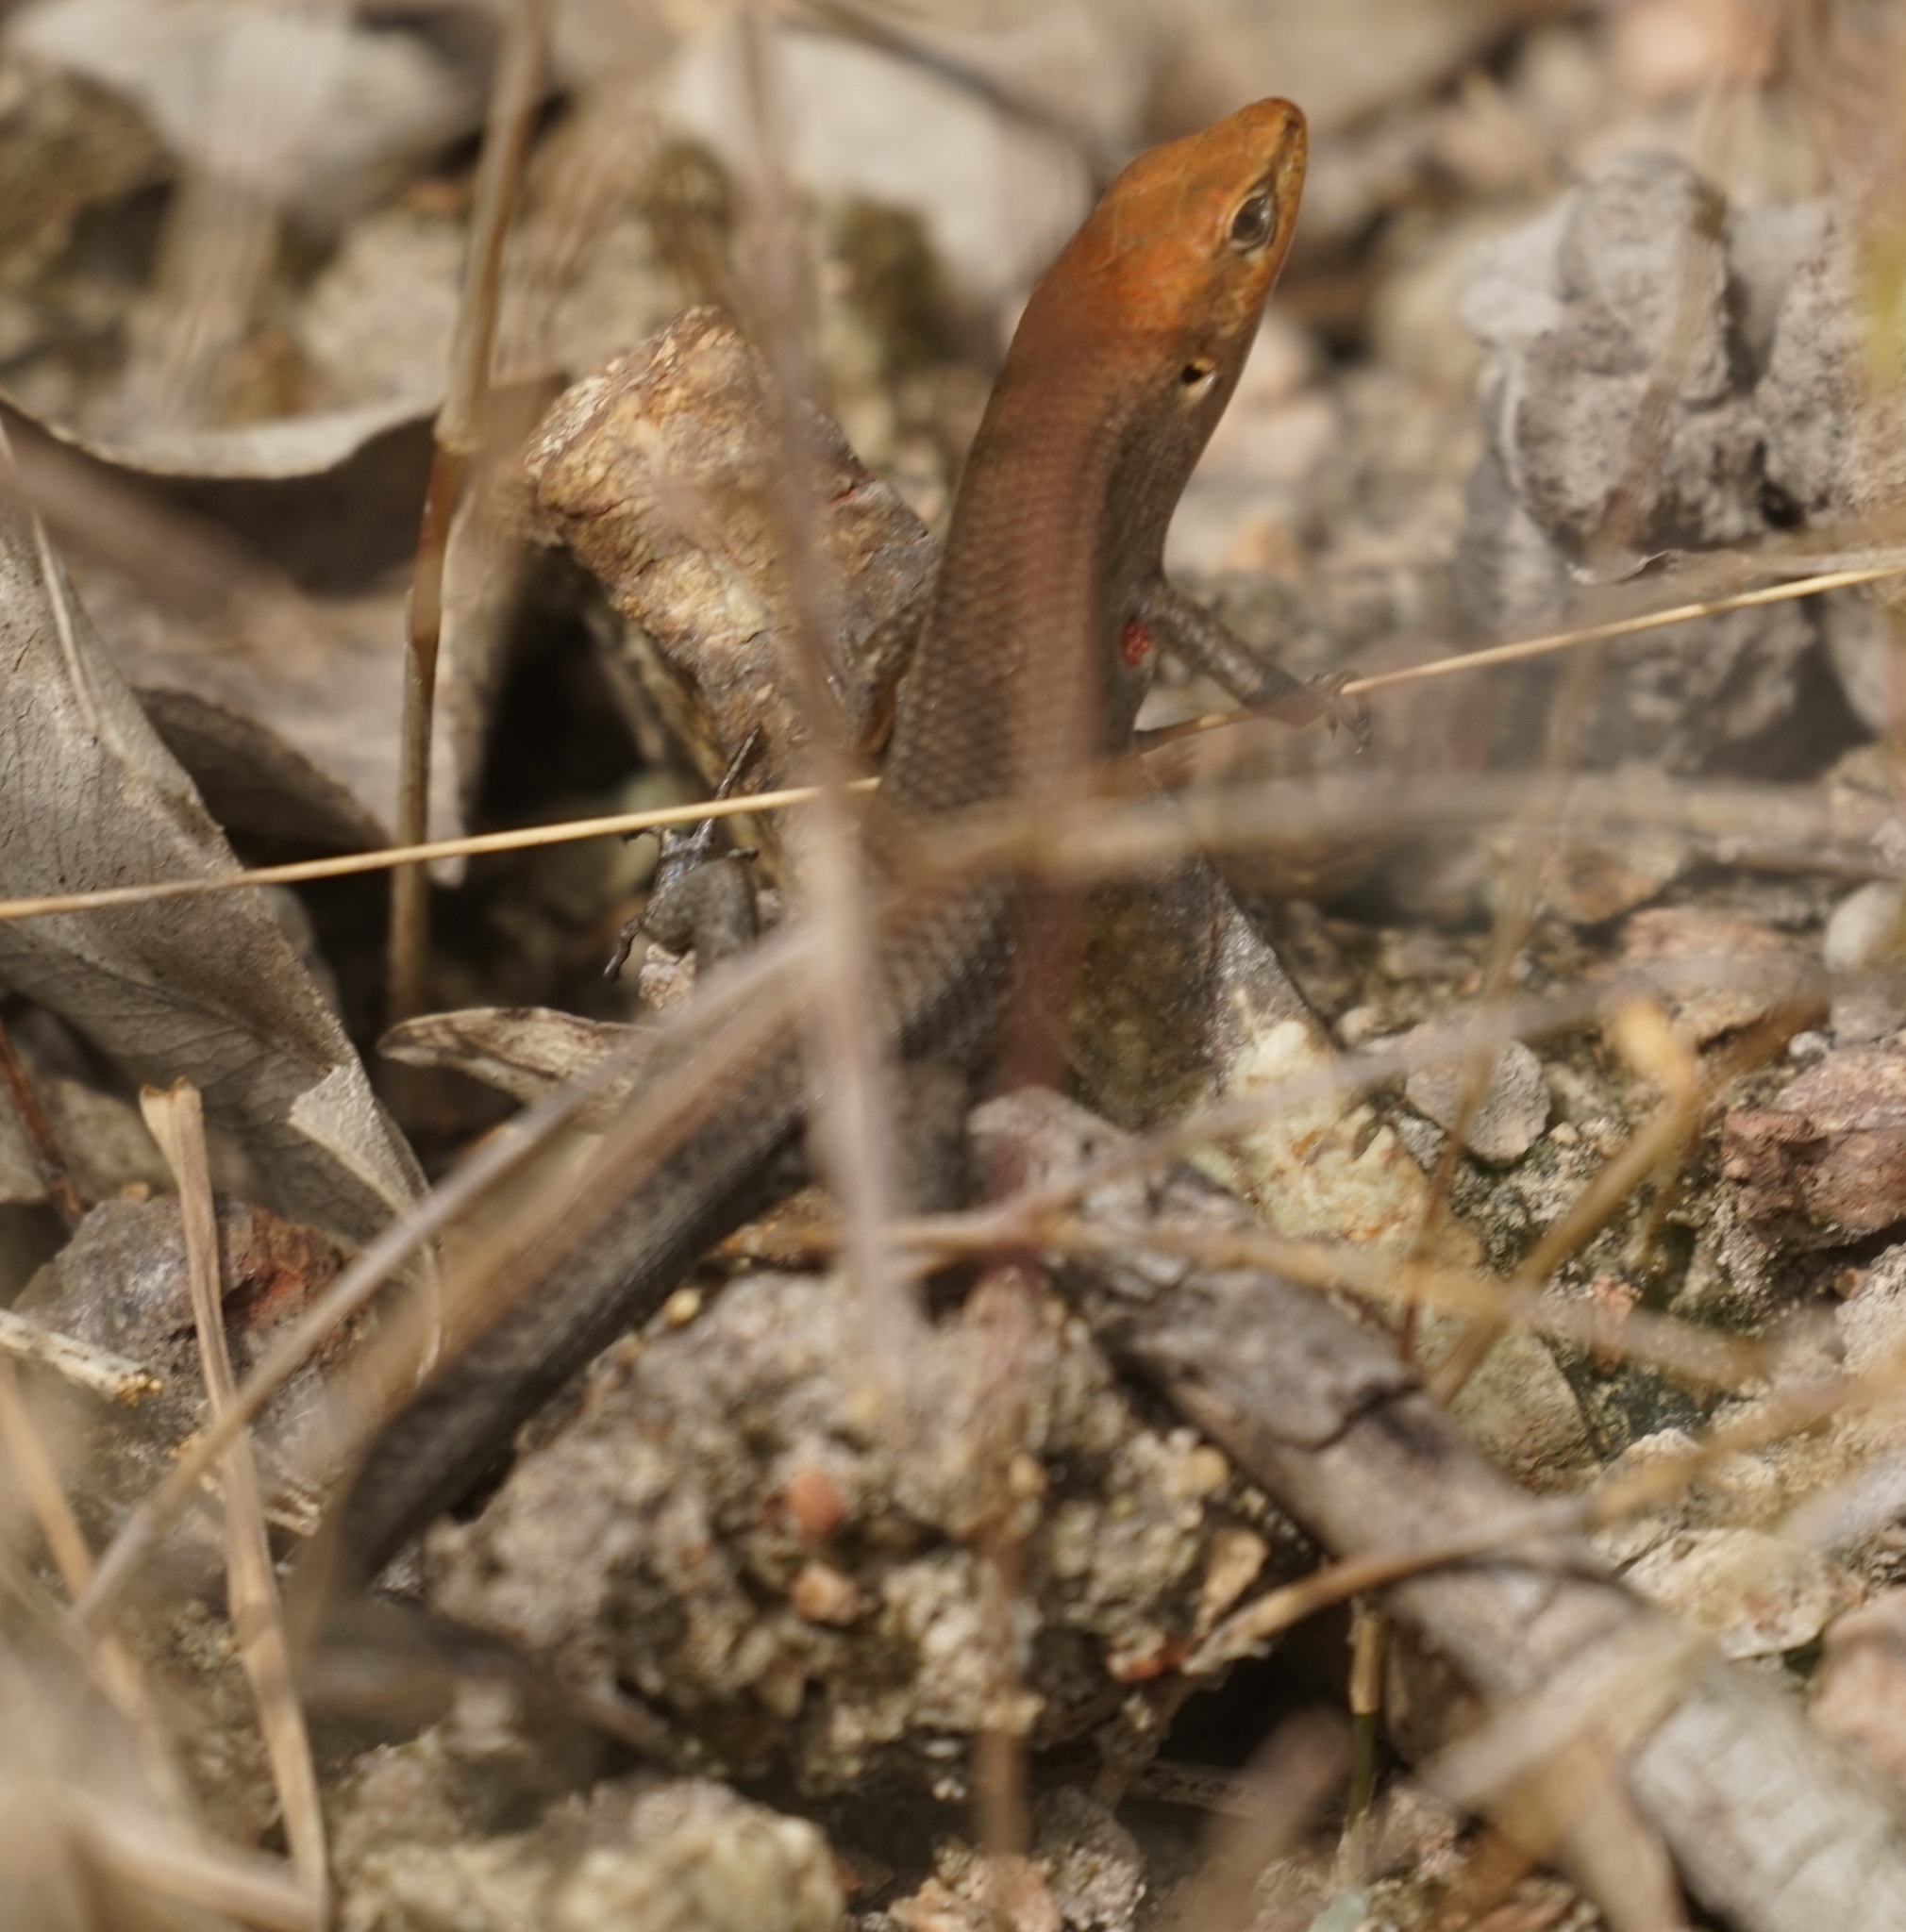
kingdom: Animalia
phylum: Chordata
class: Squamata
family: Scincidae
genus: Carlia
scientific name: Carlia schmeltzii
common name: Robust rainbow-skink
